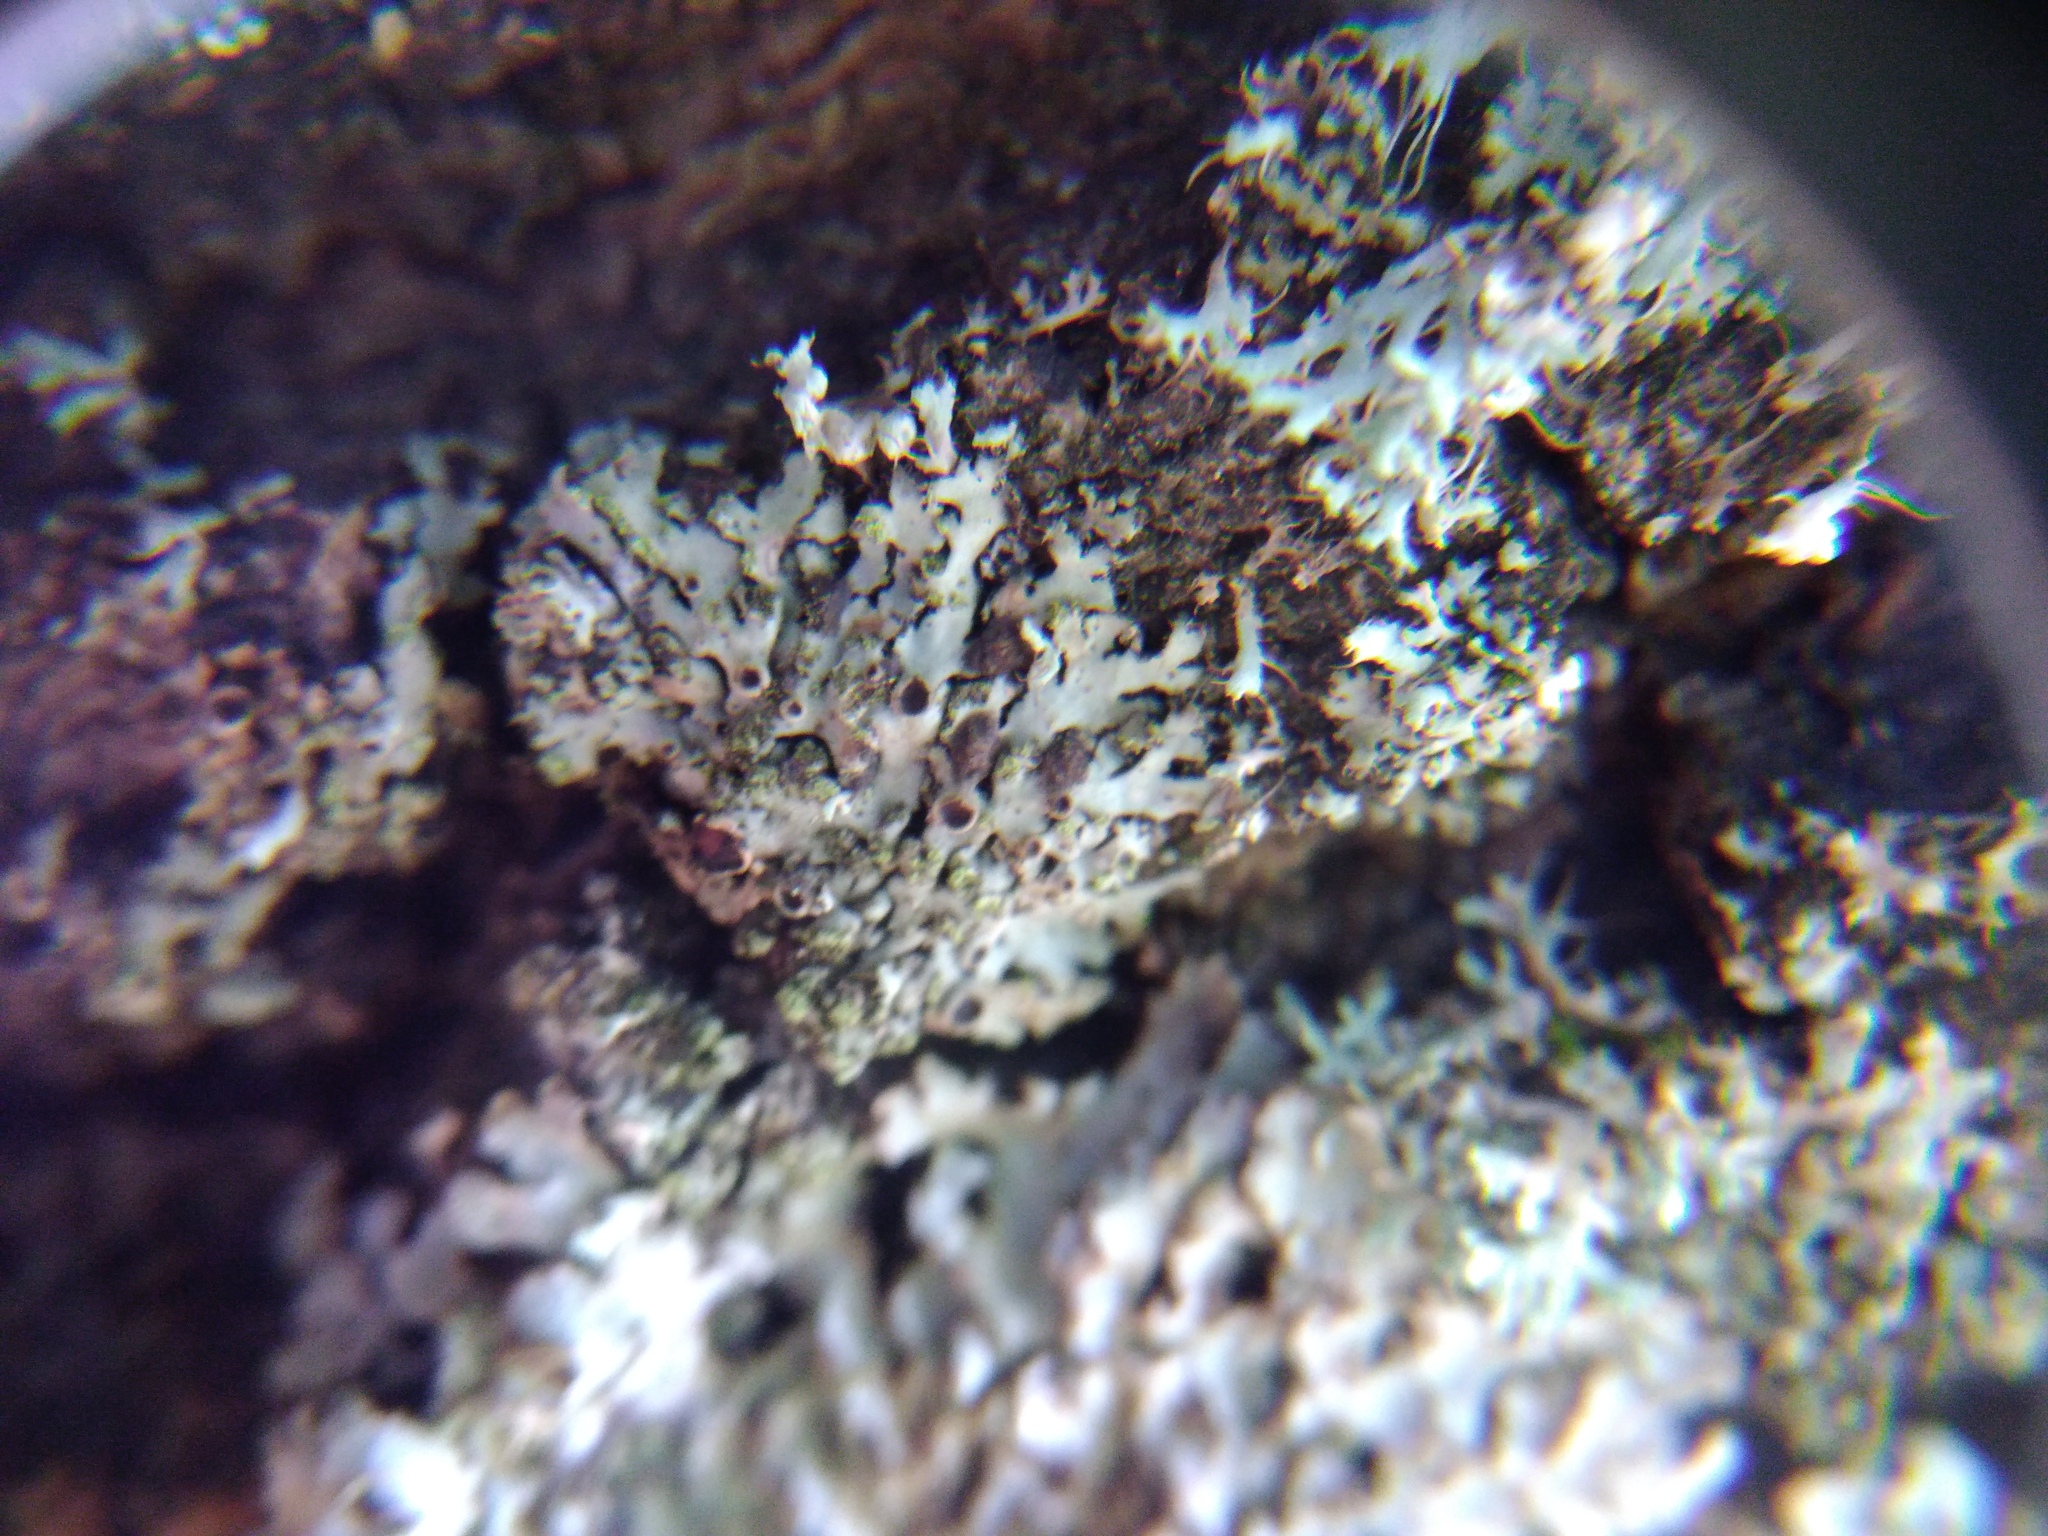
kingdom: Fungi
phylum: Ascomycota
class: Sordariomycetes
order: Phyllachorales
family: Phyllachoraceae
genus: Lichenochora
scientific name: Lichenochora obscuroides
